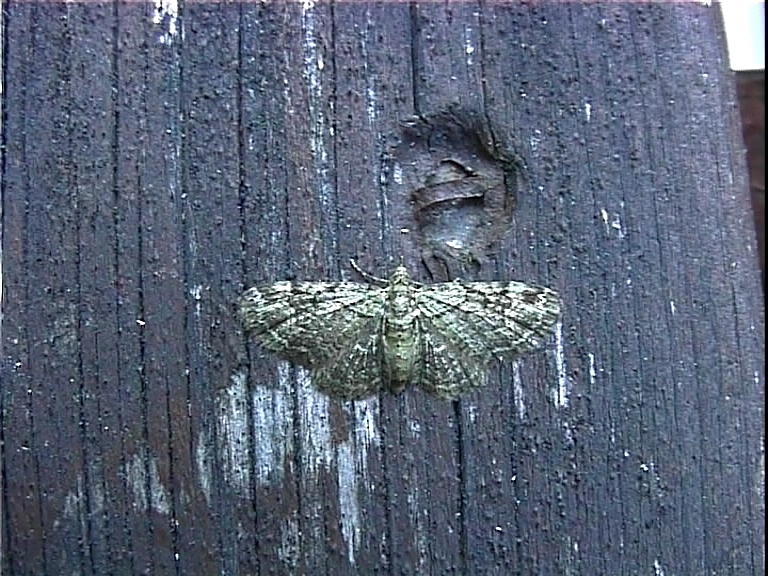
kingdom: Animalia
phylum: Arthropoda
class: Insecta
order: Lepidoptera
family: Geometridae
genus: Pasiphila
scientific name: Pasiphila rectangulata
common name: Green pug
